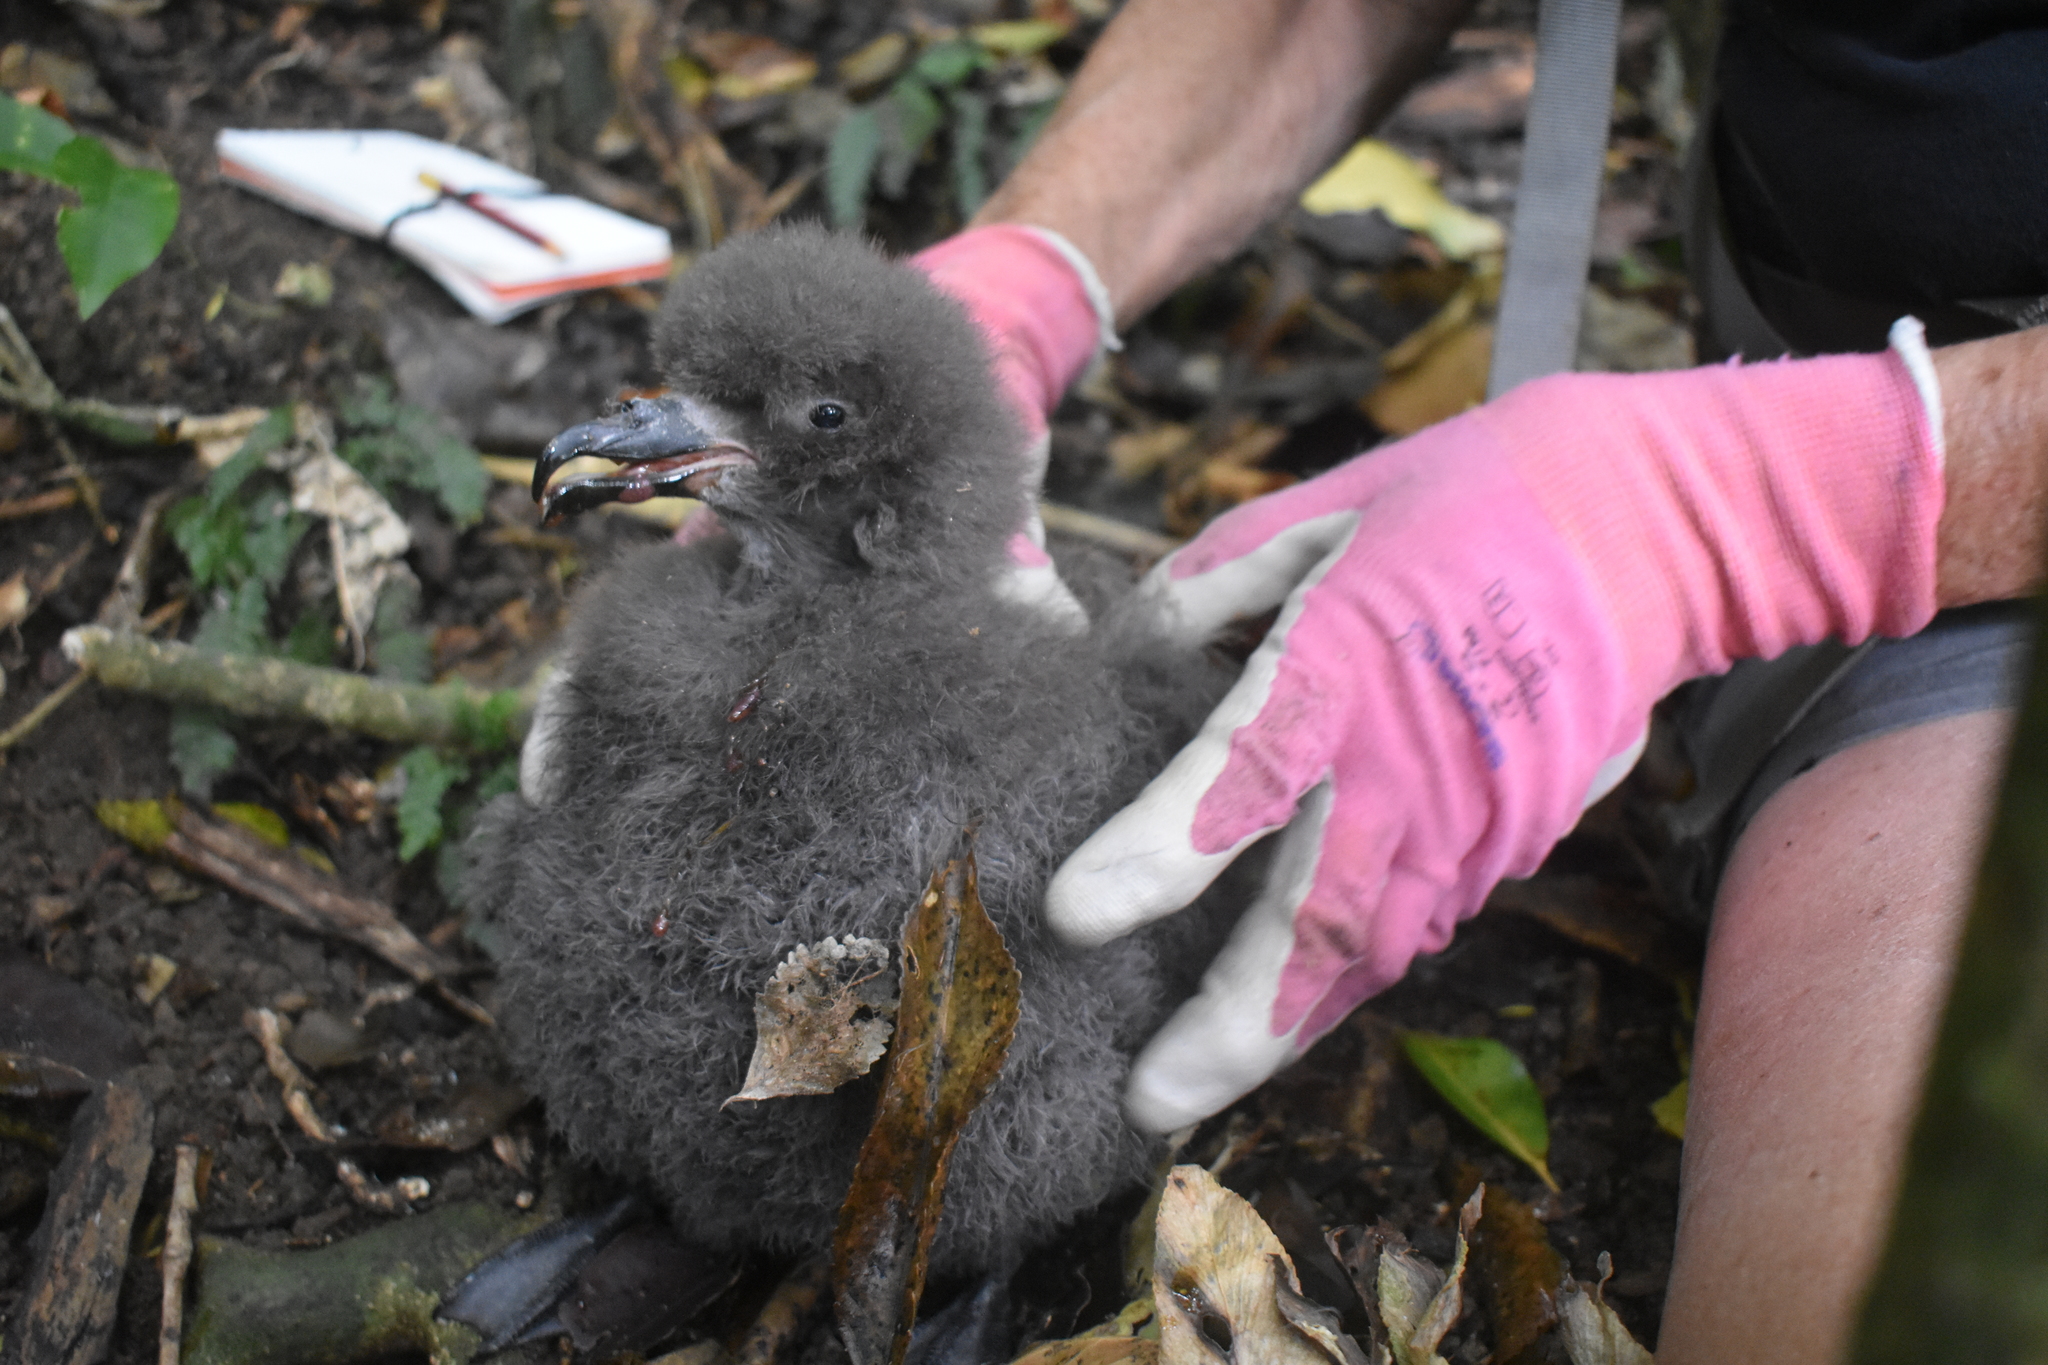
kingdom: Animalia
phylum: Chordata
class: Aves
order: Procellariiformes
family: Procellariidae
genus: Pterodroma
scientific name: Pterodroma macroptera
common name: Great-winged petrel
